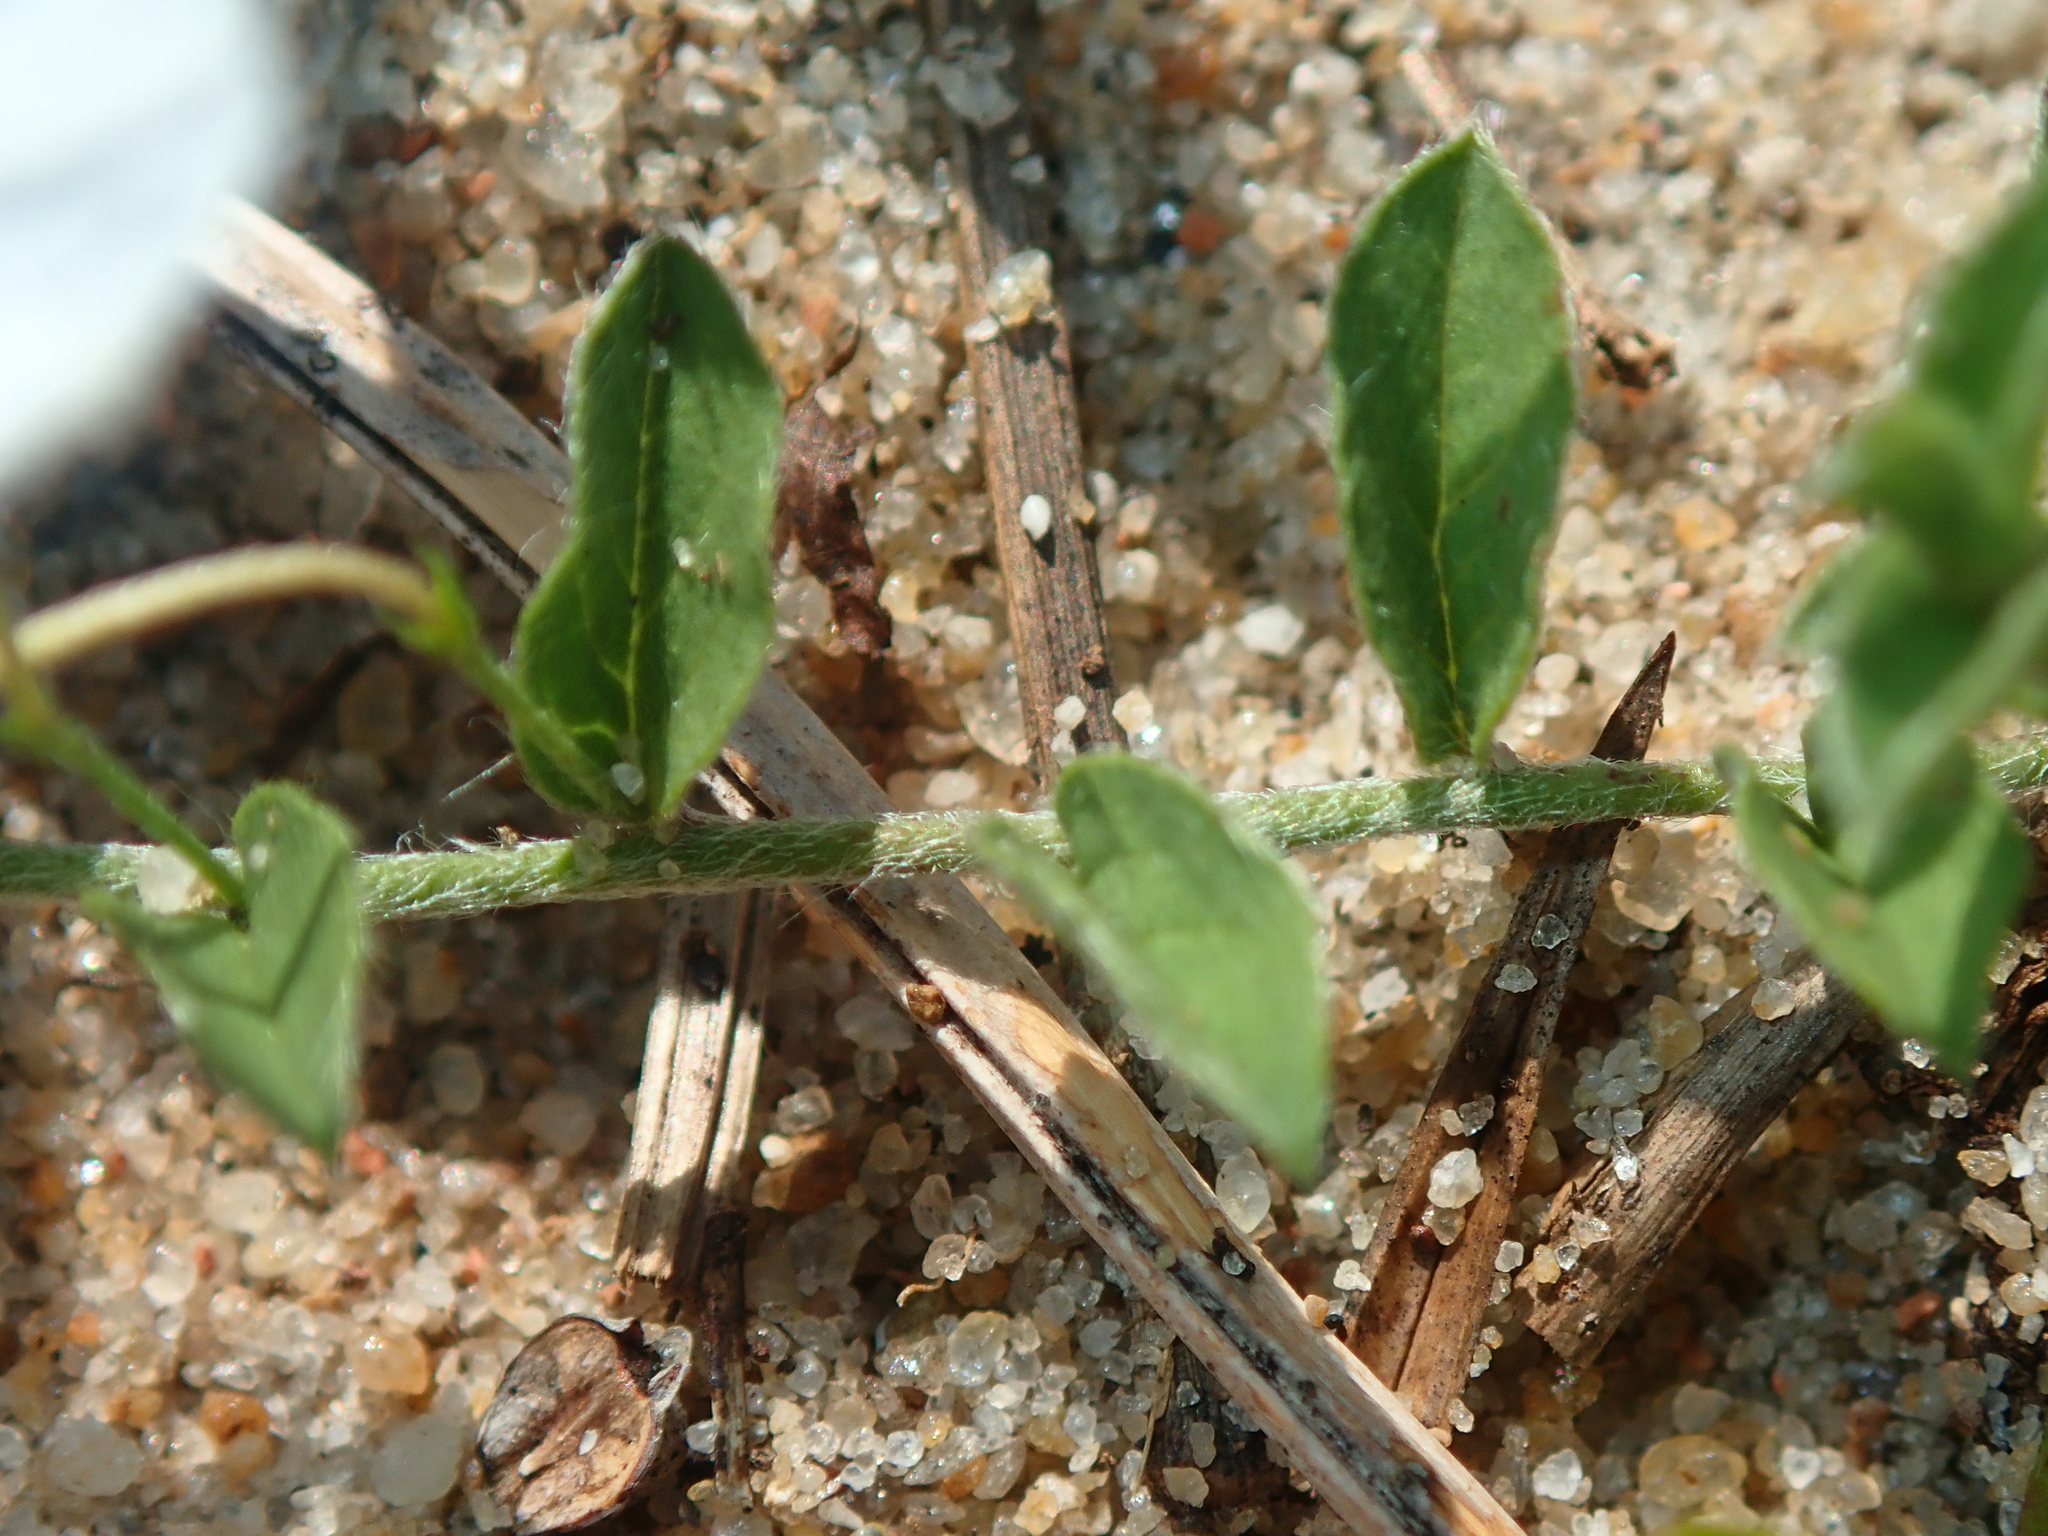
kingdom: Plantae
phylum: Tracheophyta
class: Magnoliopsida
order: Solanales
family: Convolvulaceae
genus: Evolvulus
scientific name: Evolvulus sericeus
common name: Blue dots
